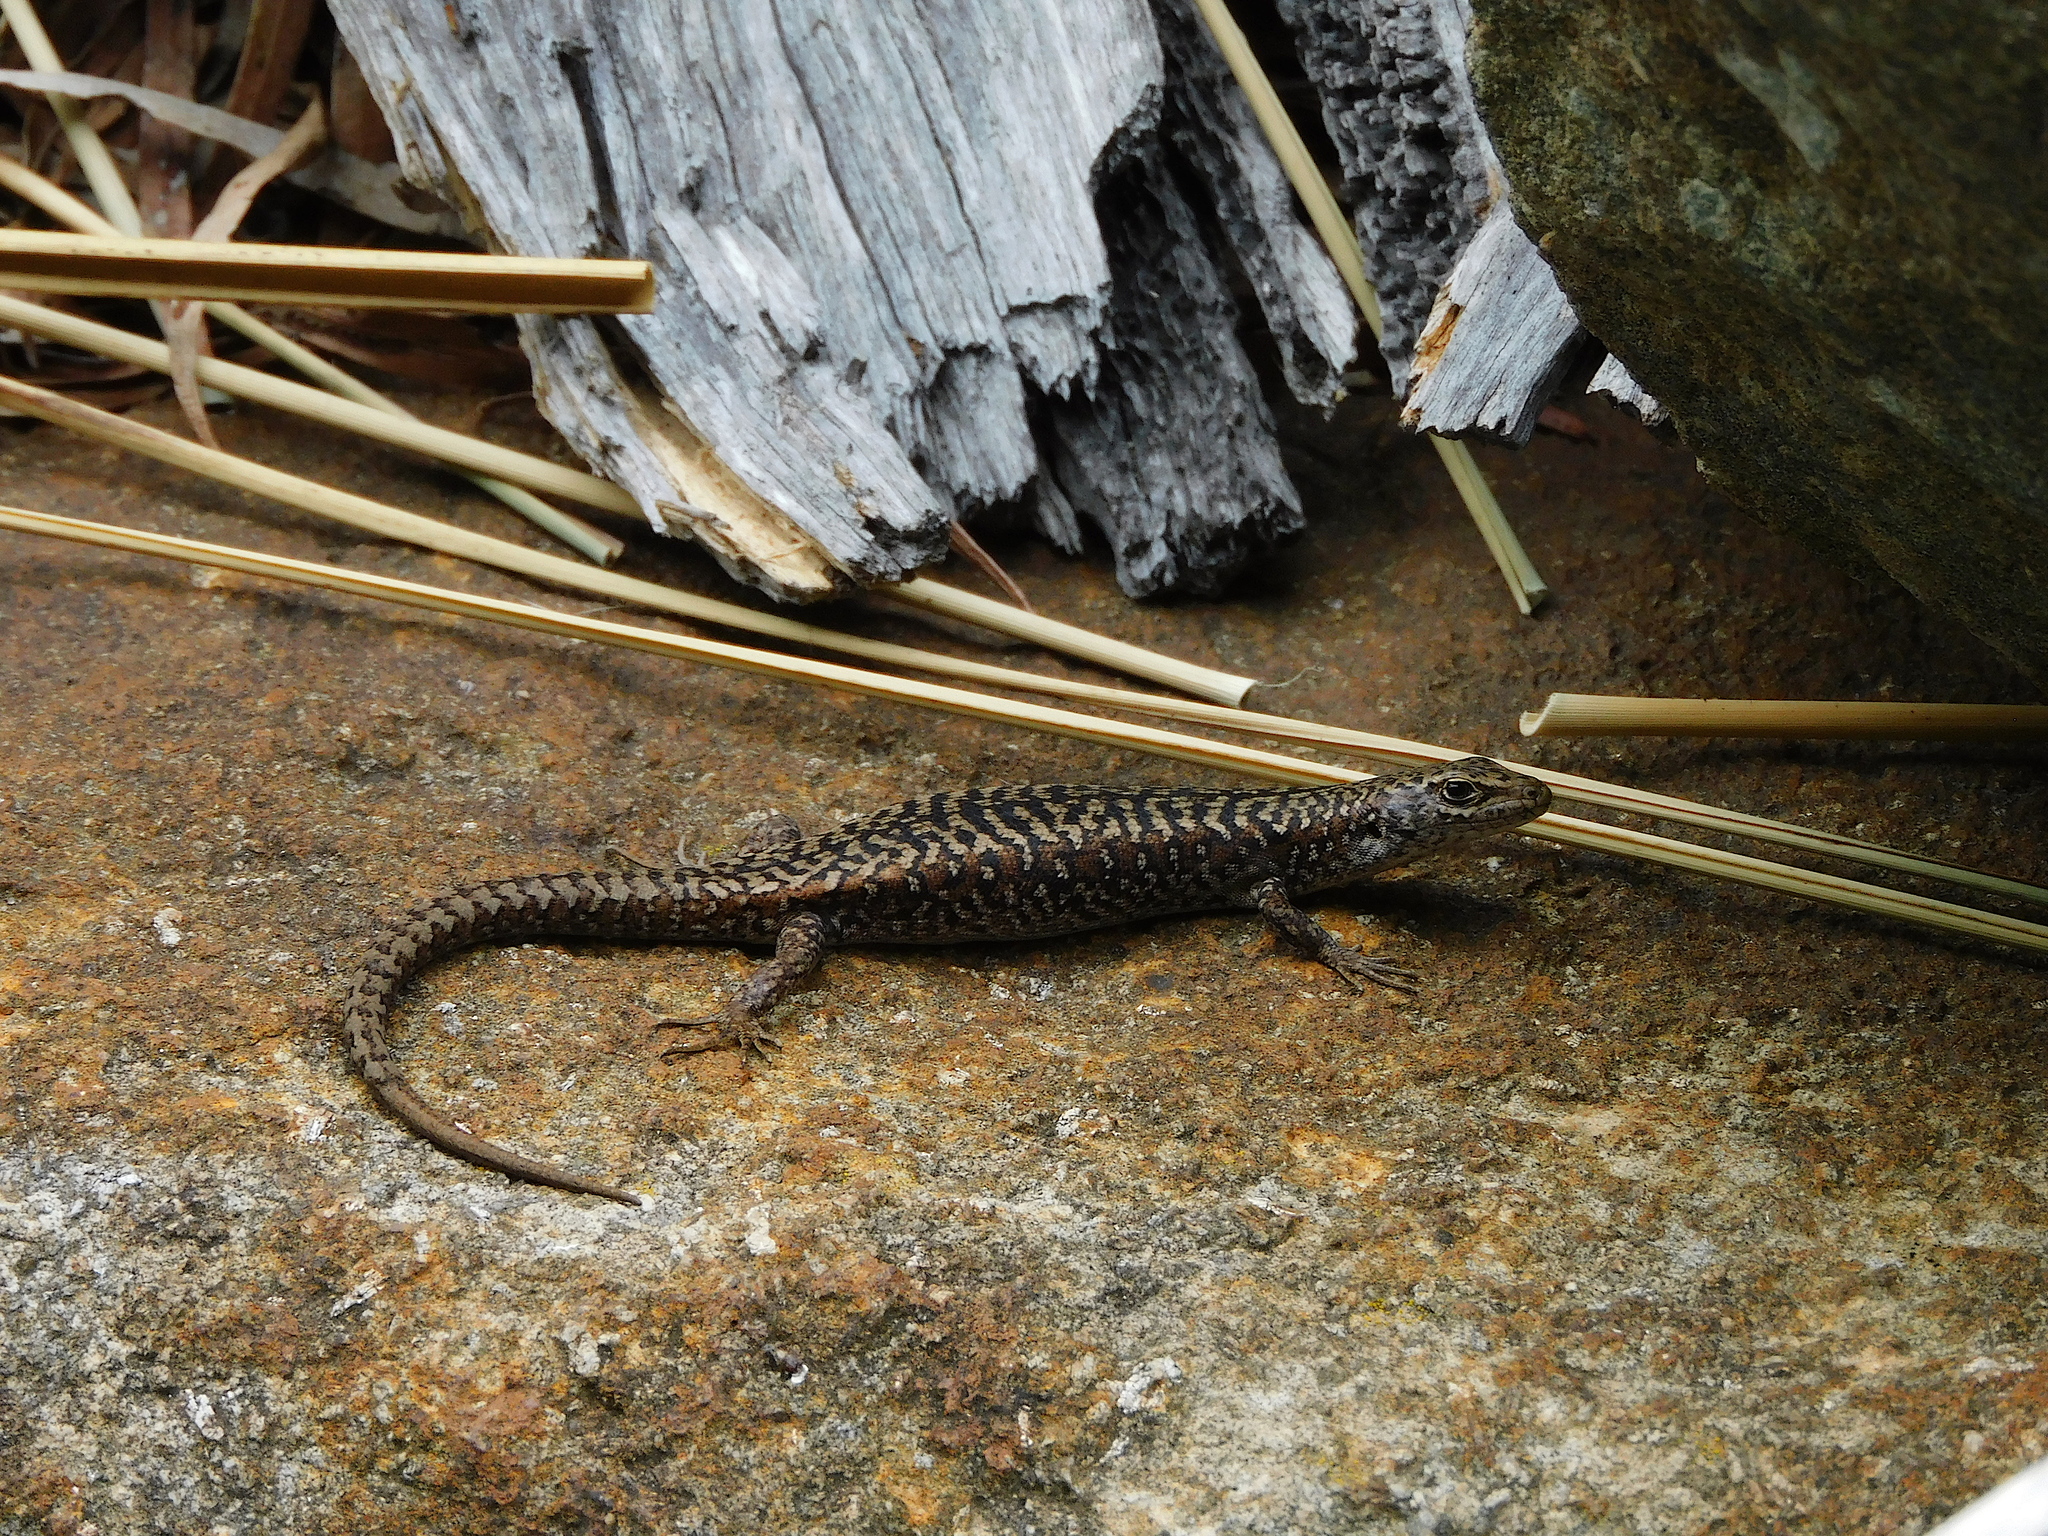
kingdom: Animalia
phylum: Chordata
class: Squamata
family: Scincidae
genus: Carinascincus
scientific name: Carinascincus ocellatus
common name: Ocellated cool-skink
